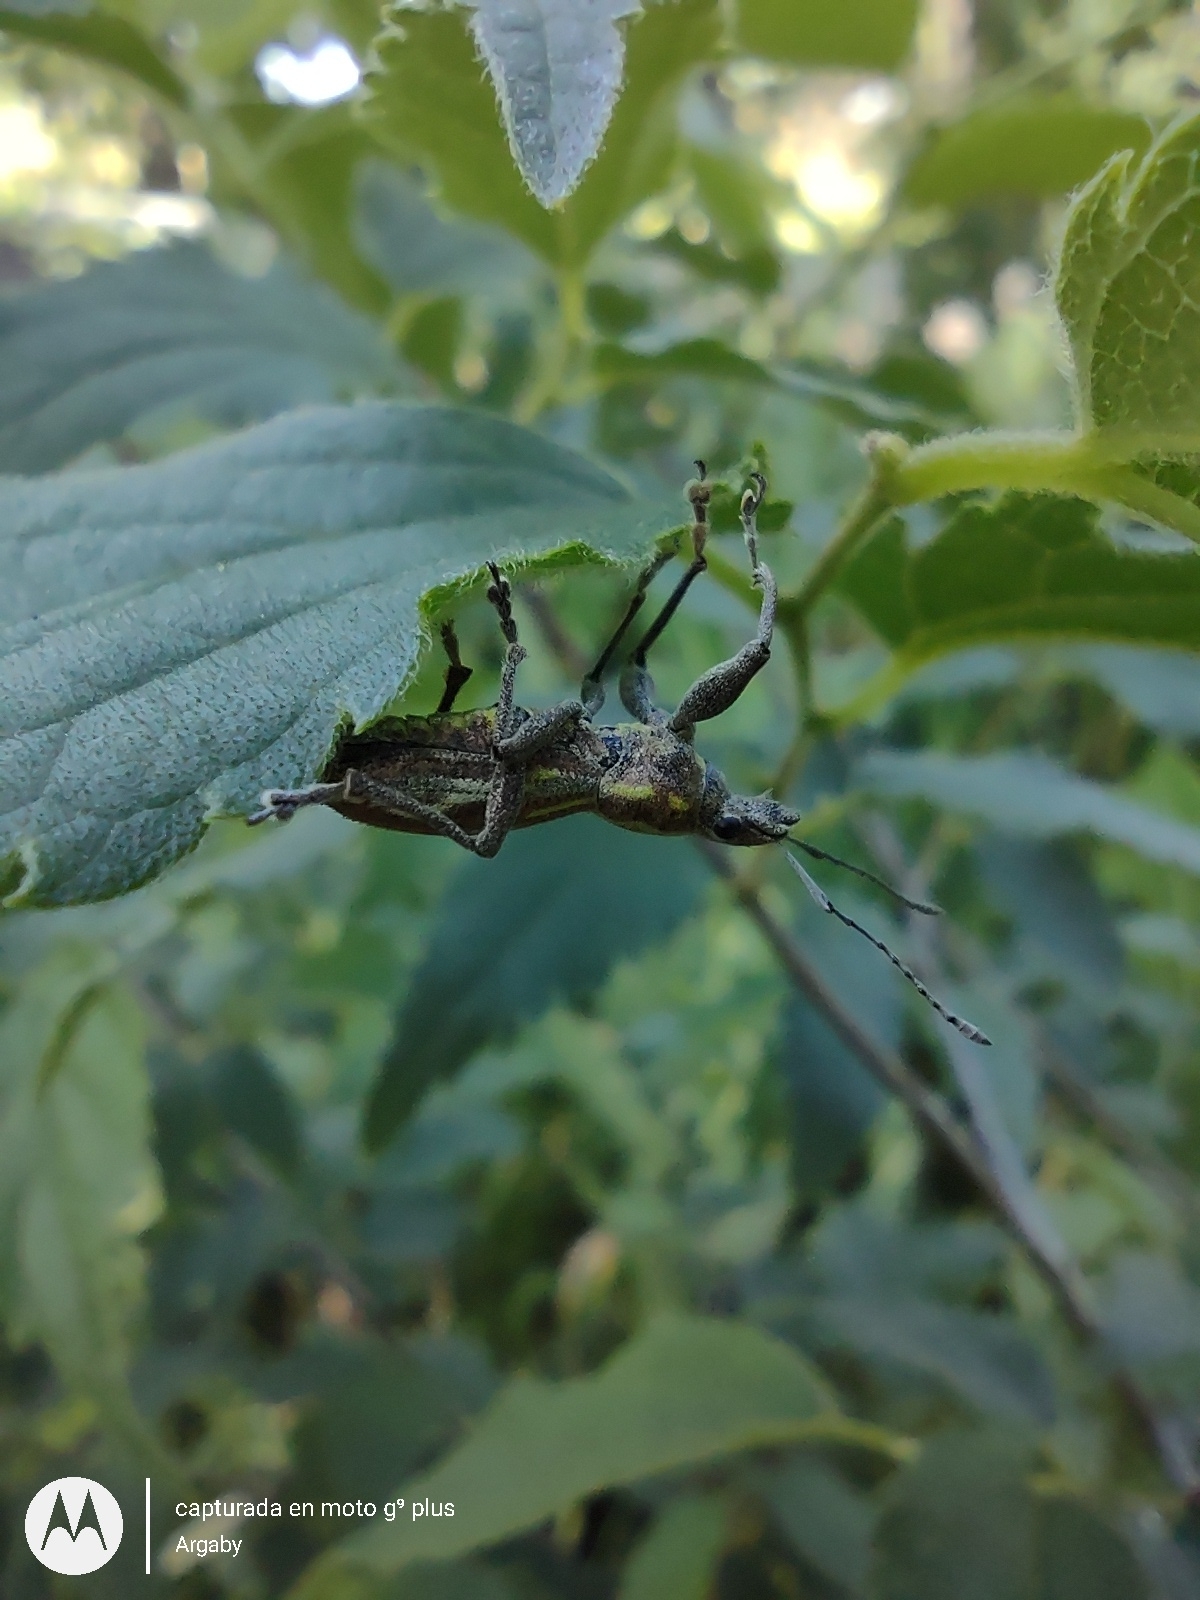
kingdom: Animalia
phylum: Arthropoda
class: Insecta
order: Coleoptera
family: Curculionidae
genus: Naupactus
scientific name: Naupactus xanthographus
